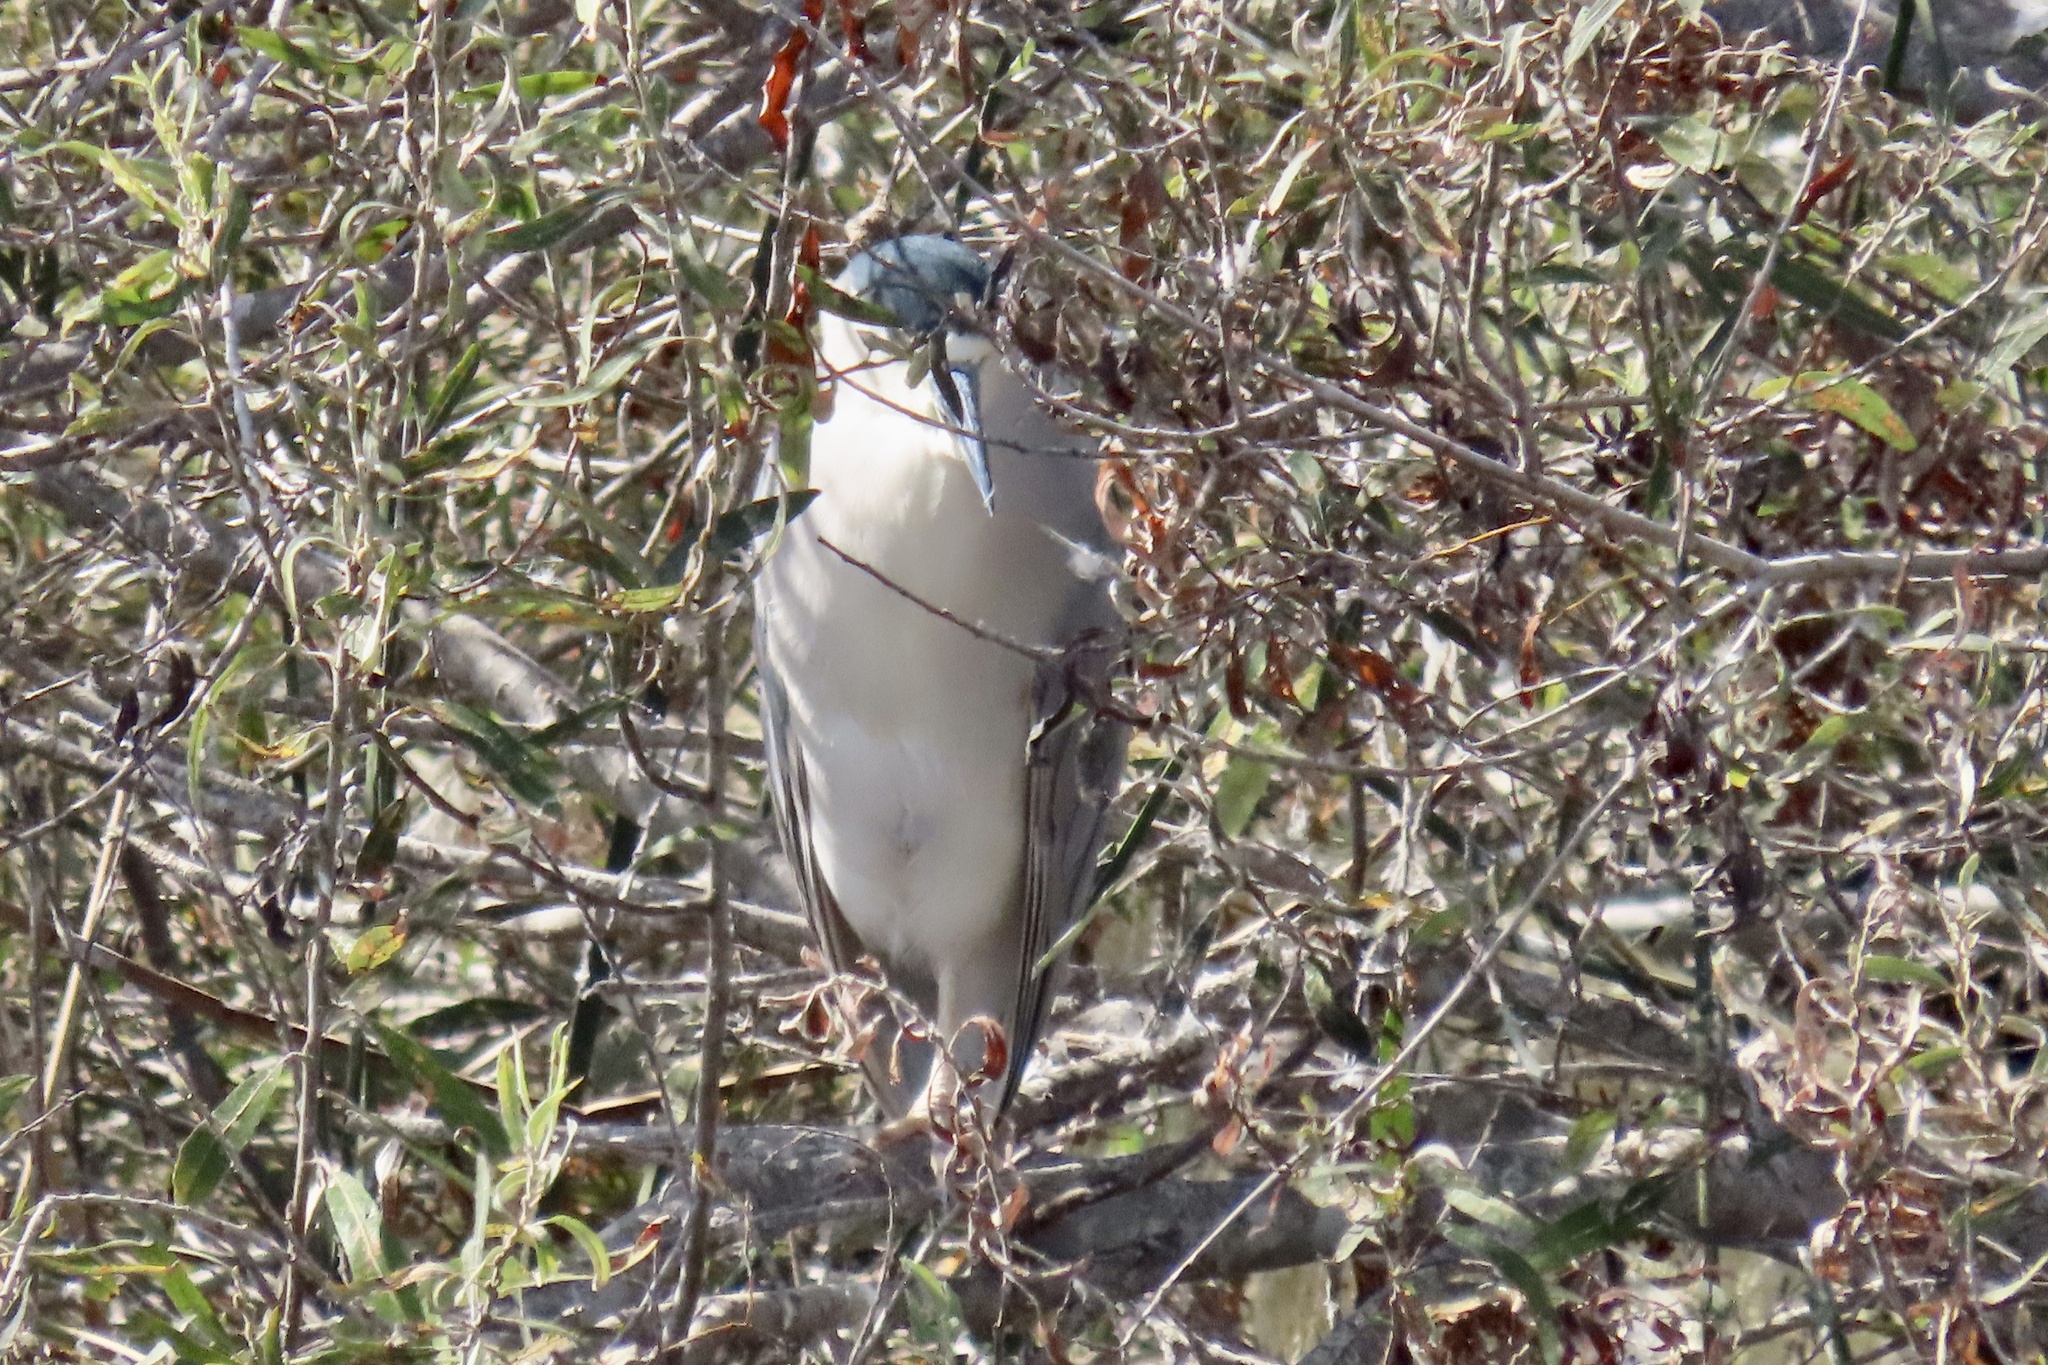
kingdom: Animalia
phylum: Chordata
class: Aves
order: Pelecaniformes
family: Ardeidae
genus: Nycticorax
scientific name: Nycticorax nycticorax
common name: Black-crowned night heron
